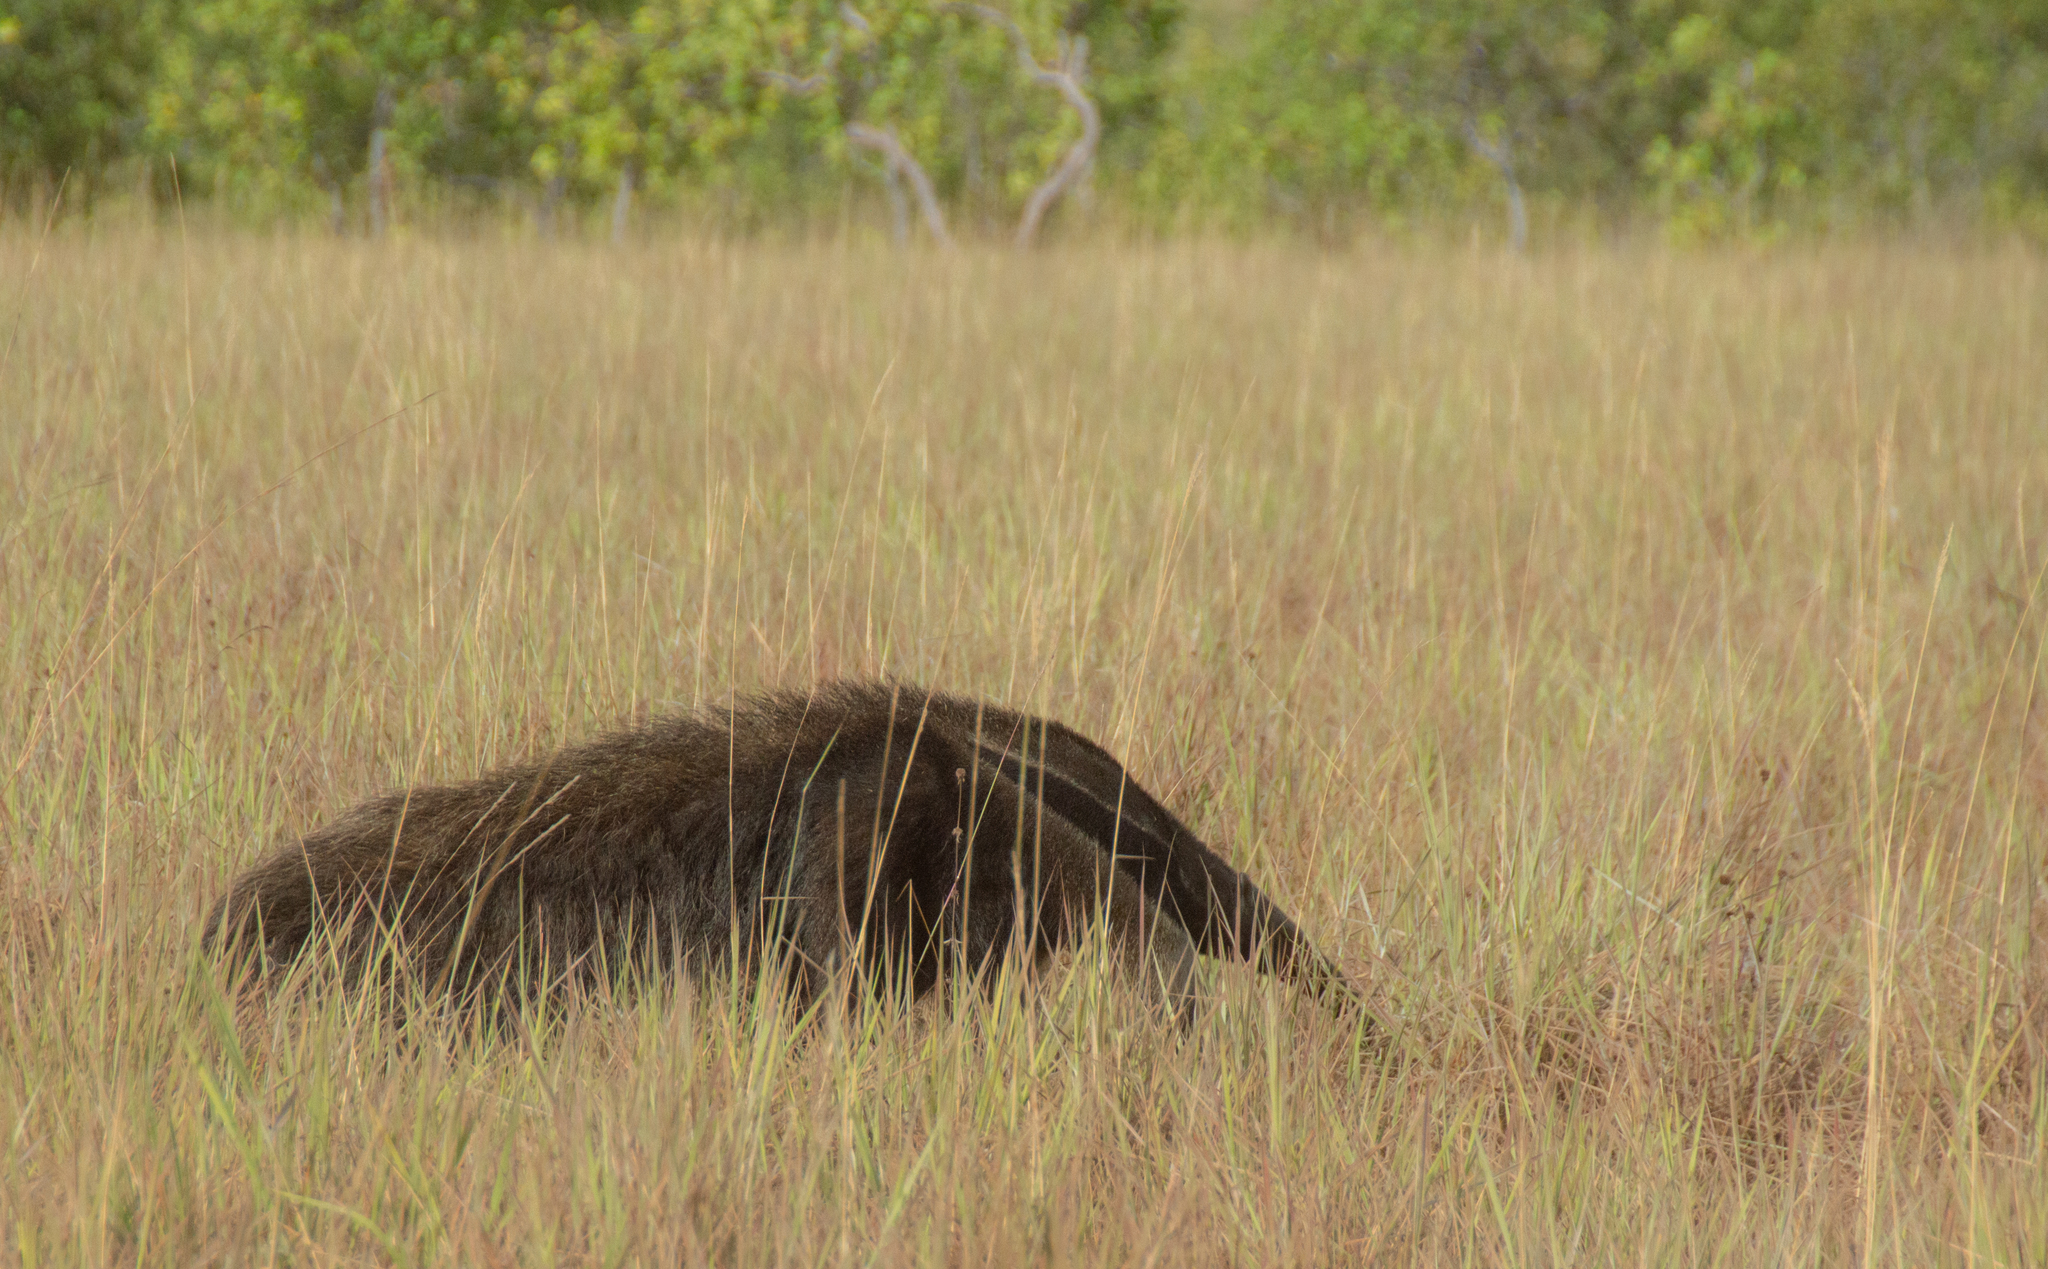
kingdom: Animalia
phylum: Chordata
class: Mammalia
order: Pilosa
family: Myrmecophagidae
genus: Myrmecophaga
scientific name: Myrmecophaga tridactyla
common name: Giant anteater
